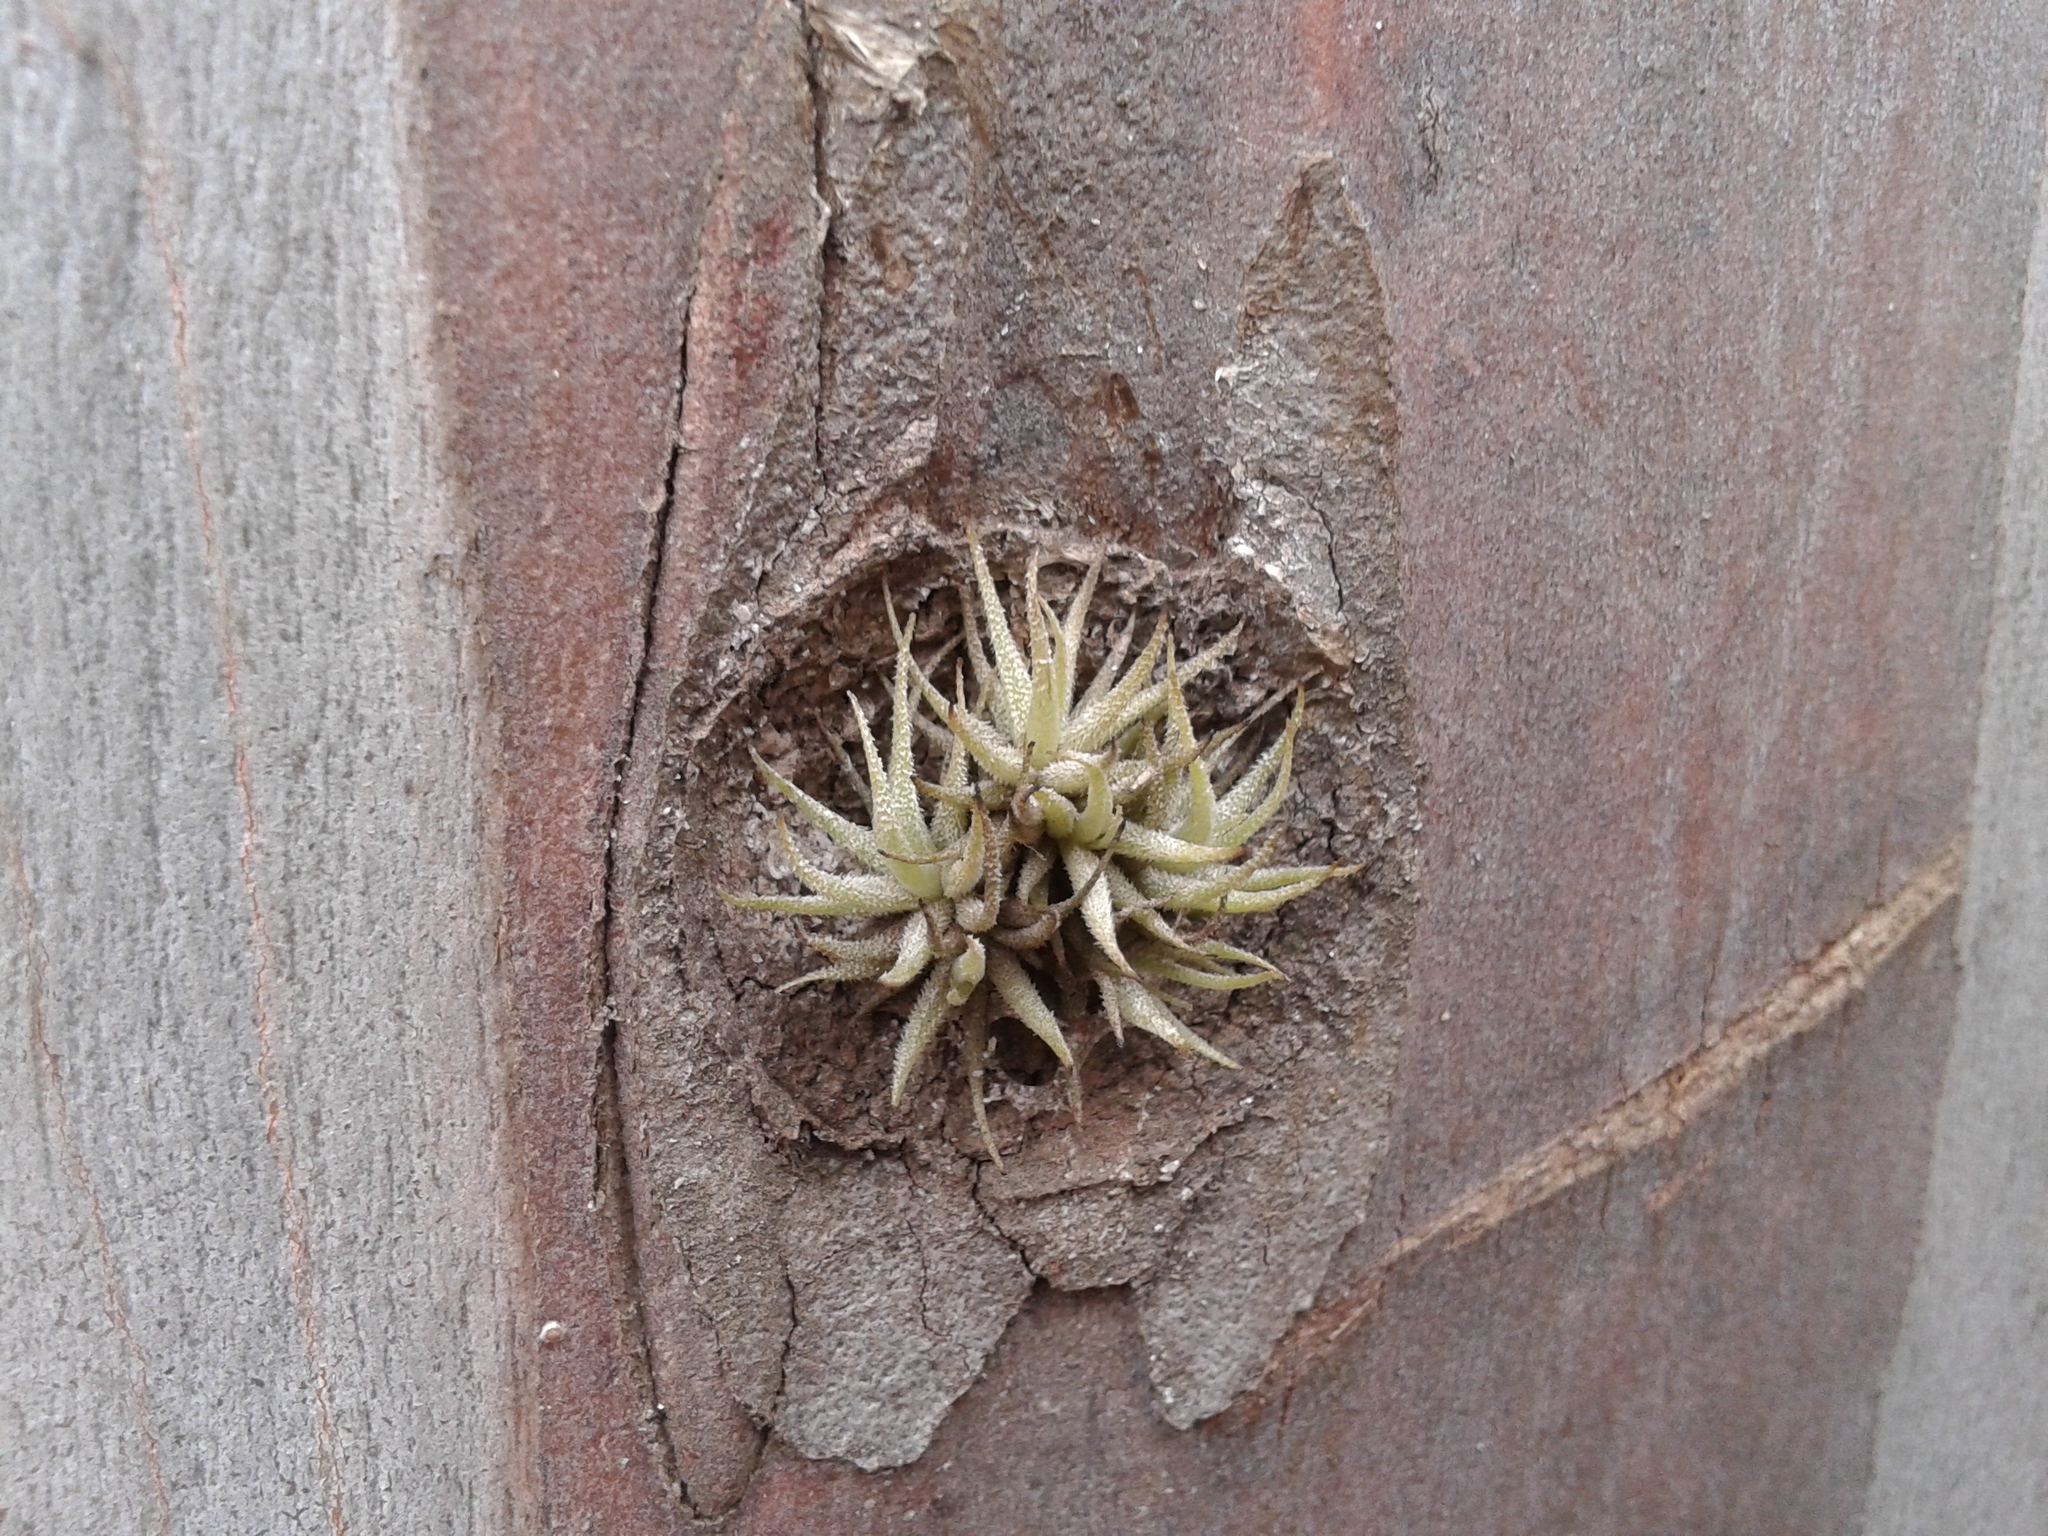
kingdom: Plantae
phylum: Tracheophyta
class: Liliopsida
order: Poales
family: Bromeliaceae
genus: Tillandsia
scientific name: Tillandsia loliacea
